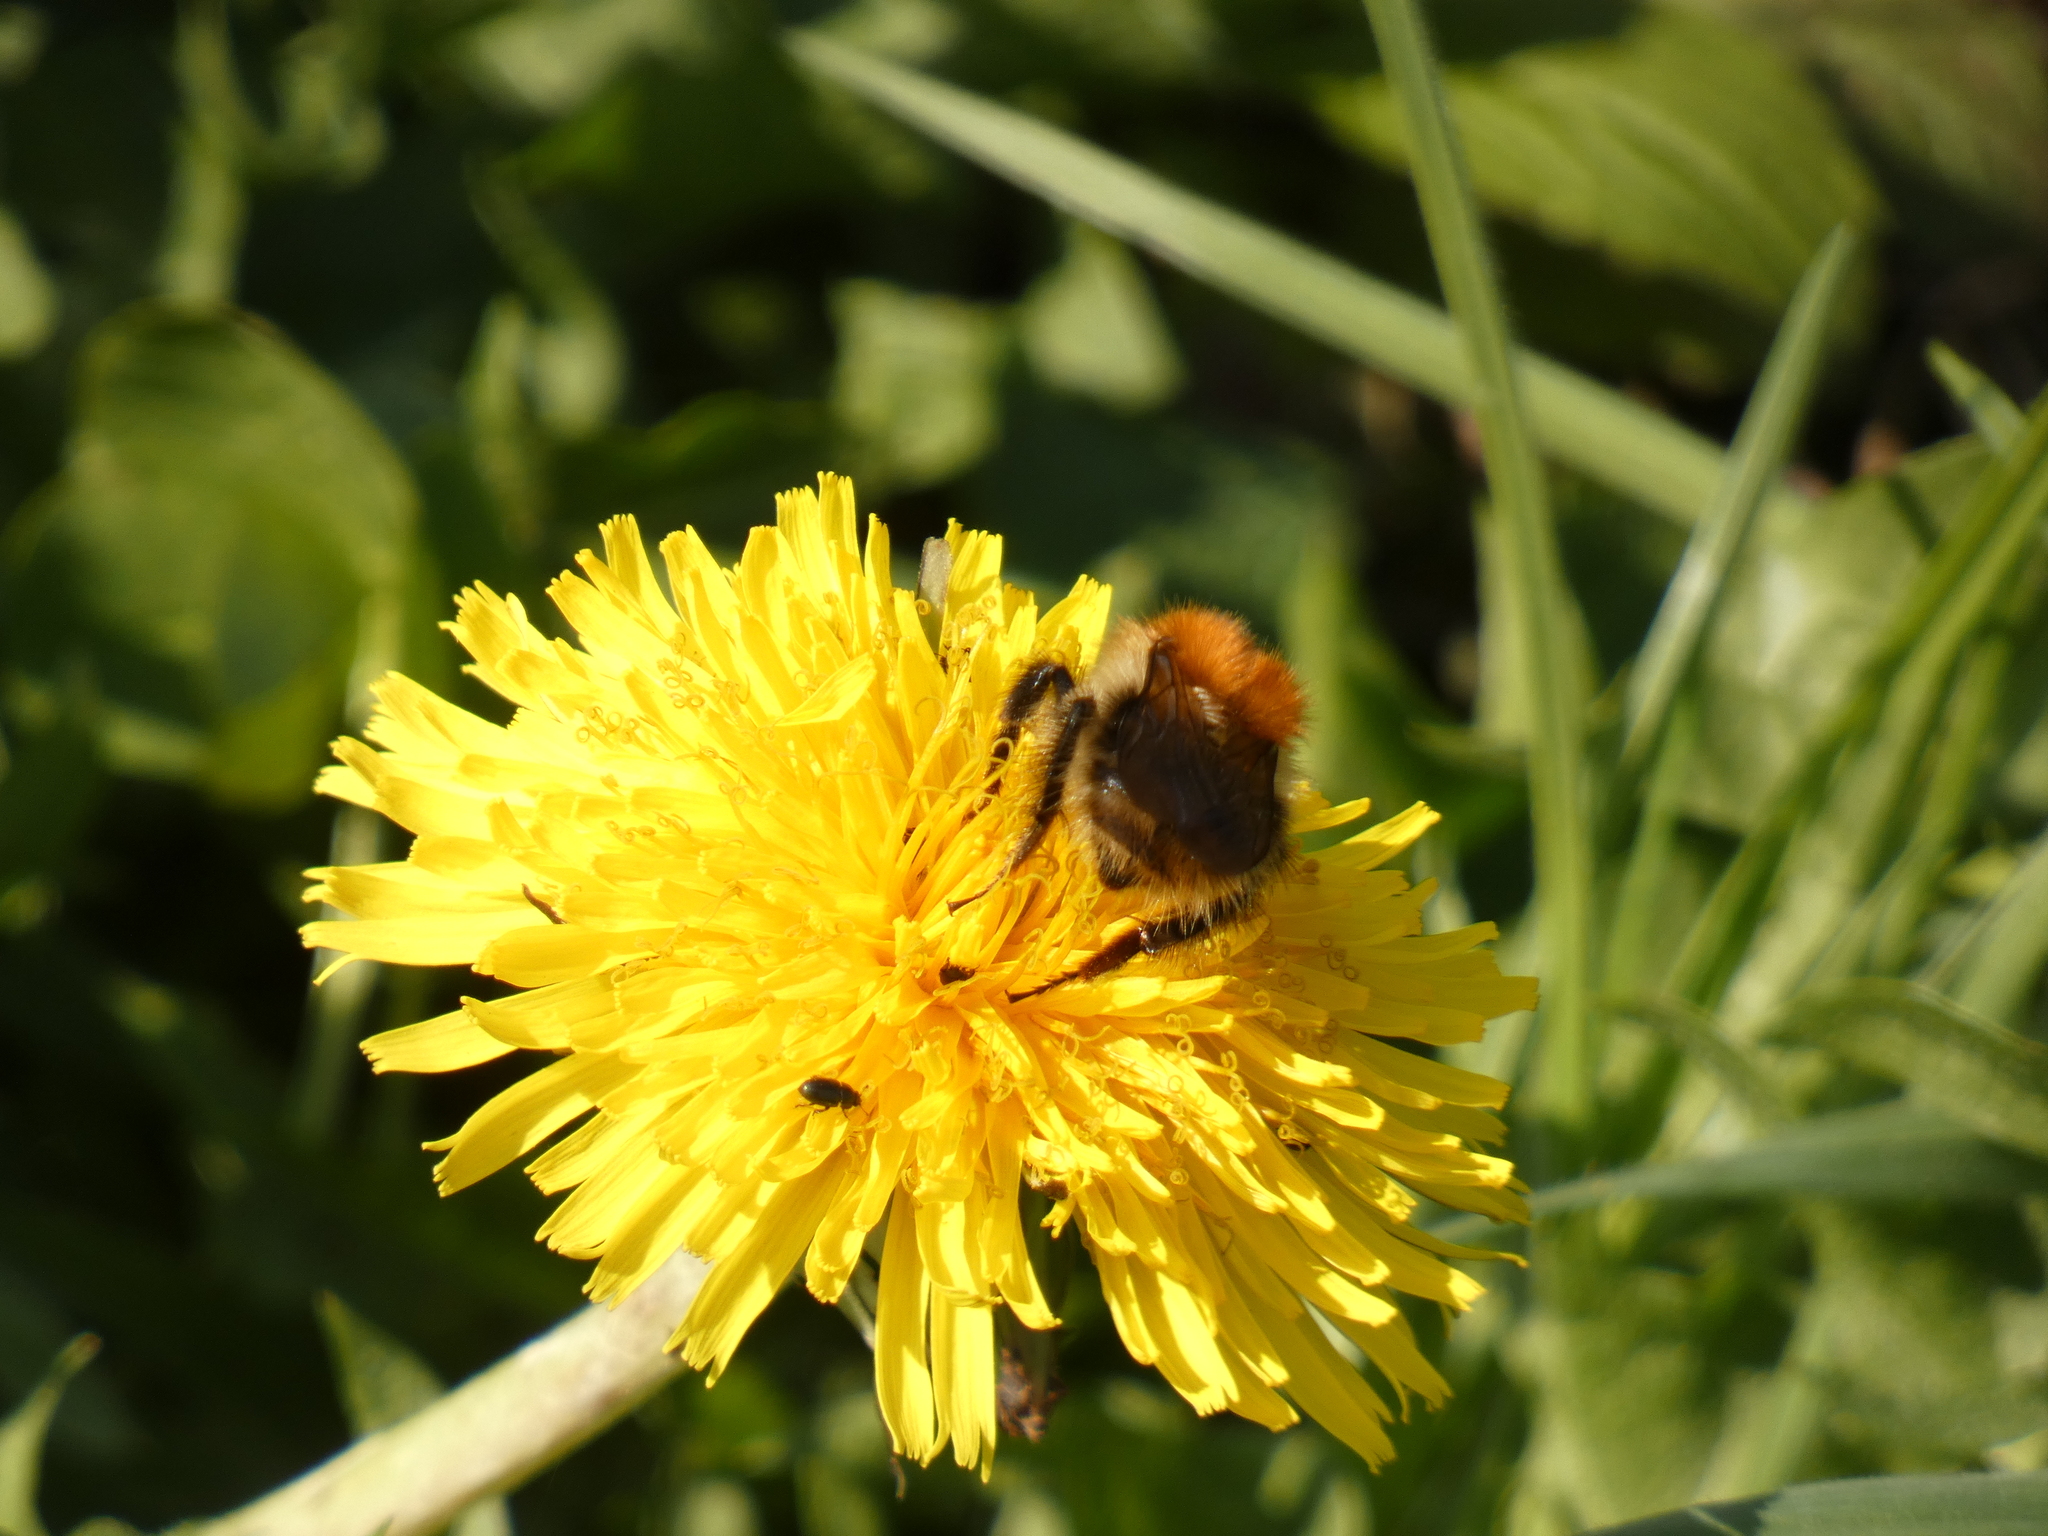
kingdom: Animalia
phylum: Arthropoda
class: Insecta
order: Hymenoptera
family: Apidae
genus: Bombus
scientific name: Bombus pascuorum
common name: Common carder bee
